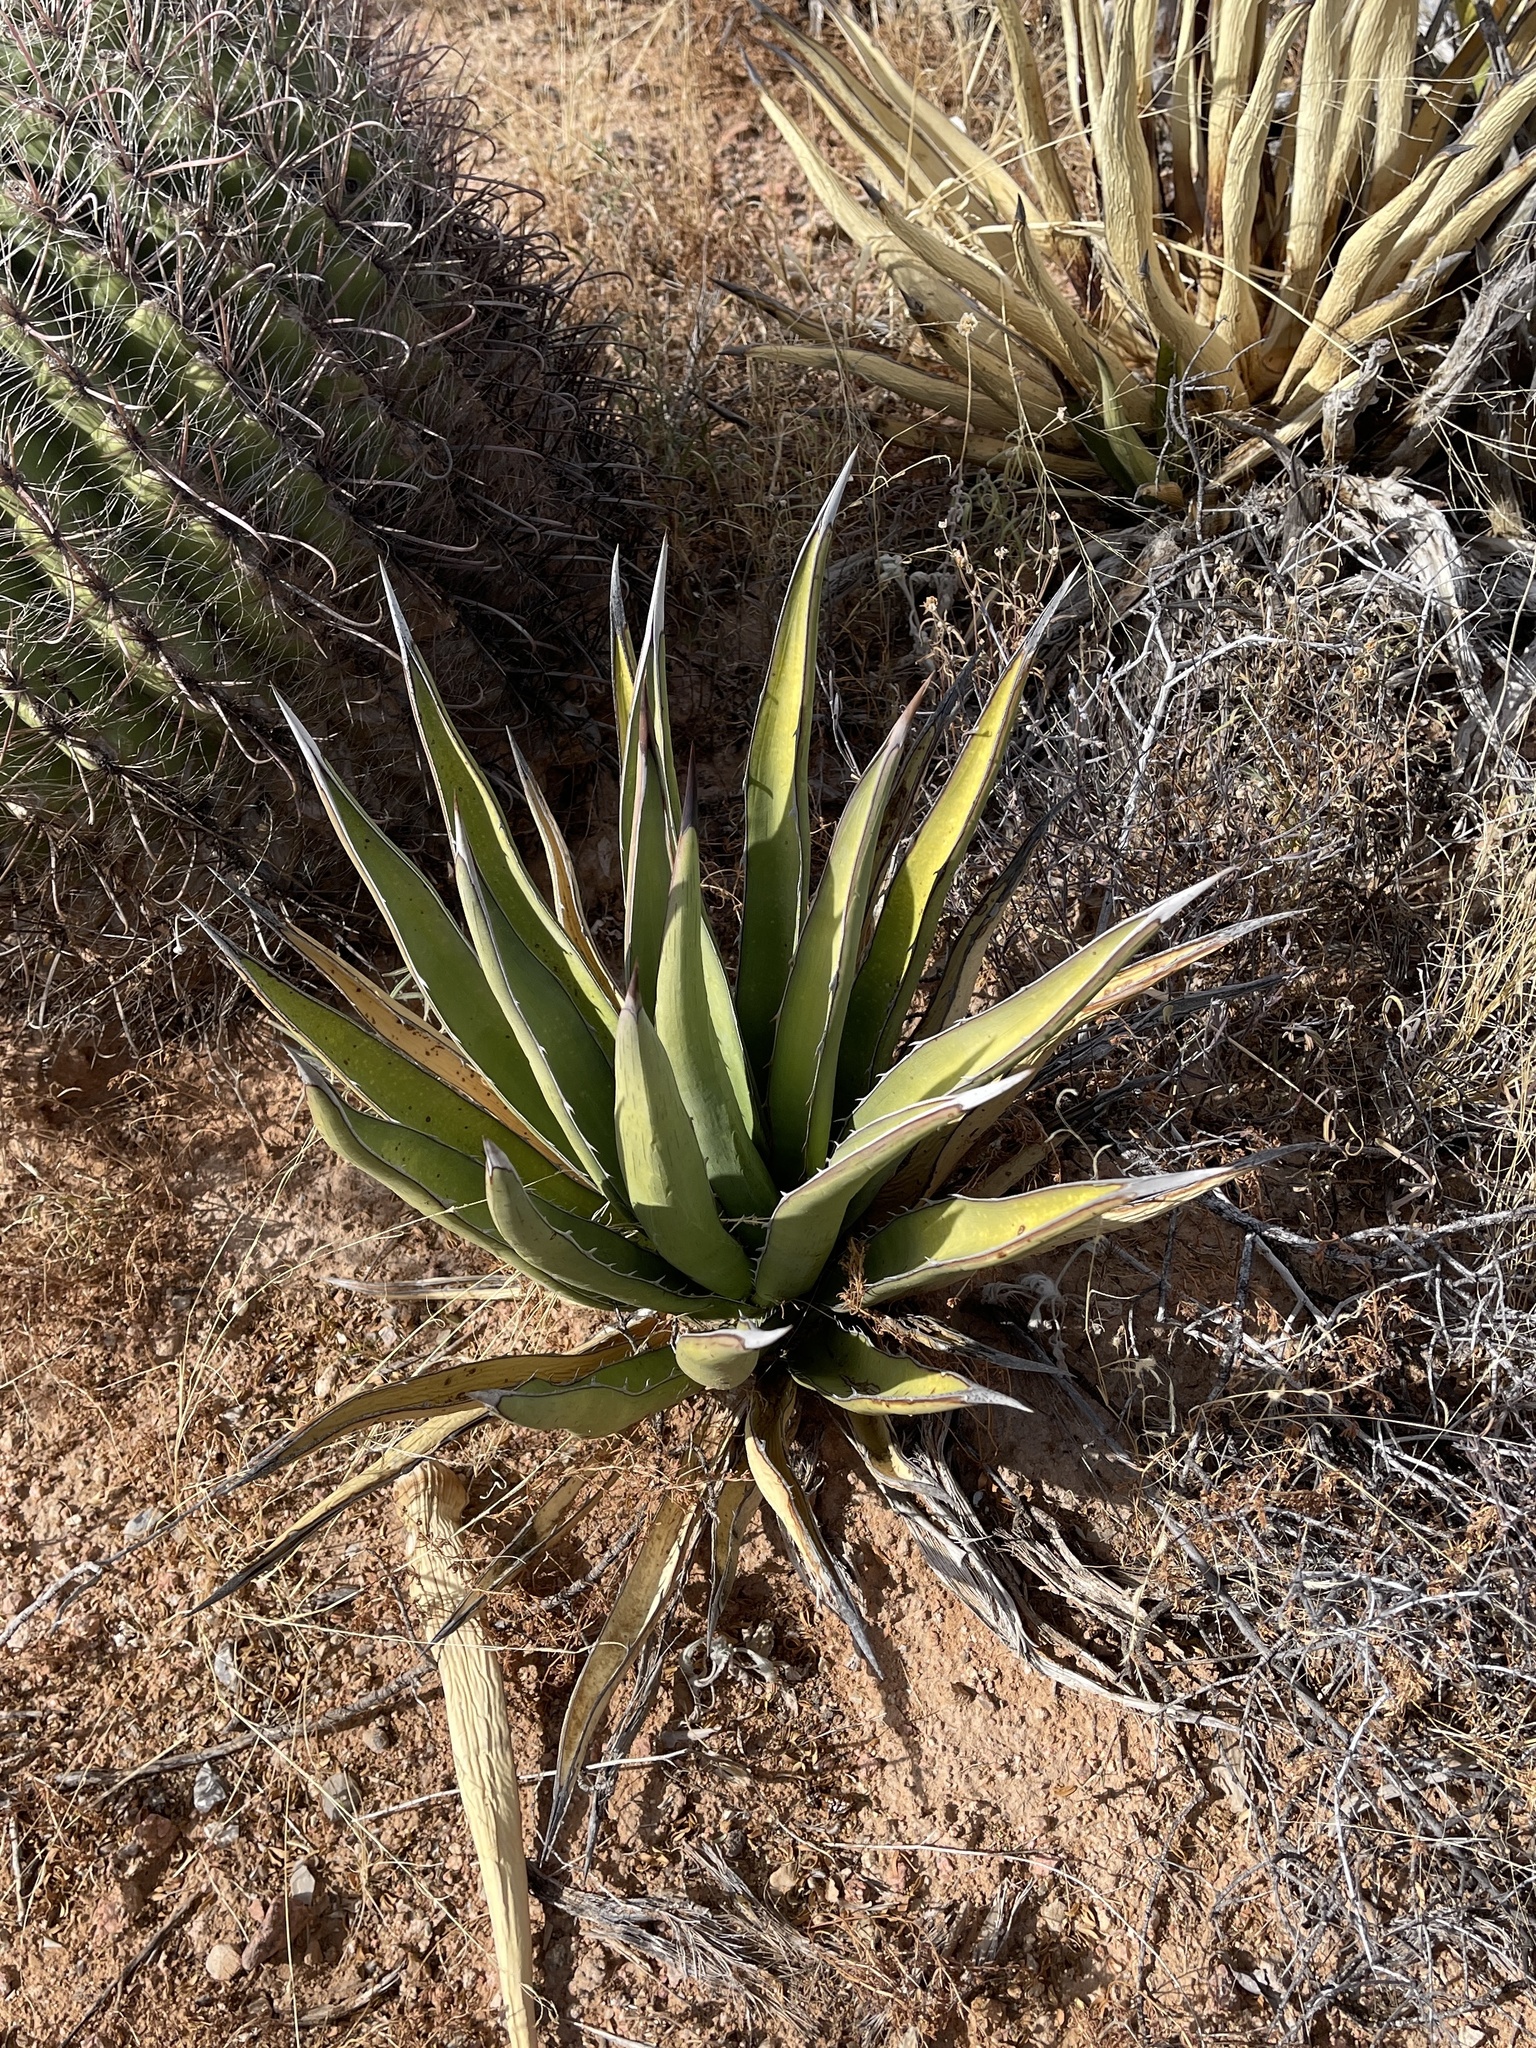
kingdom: Plantae
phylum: Tracheophyta
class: Liliopsida
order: Asparagales
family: Asparagaceae
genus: Agave
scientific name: Agave lechuguilla
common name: Lecheguilla agave
